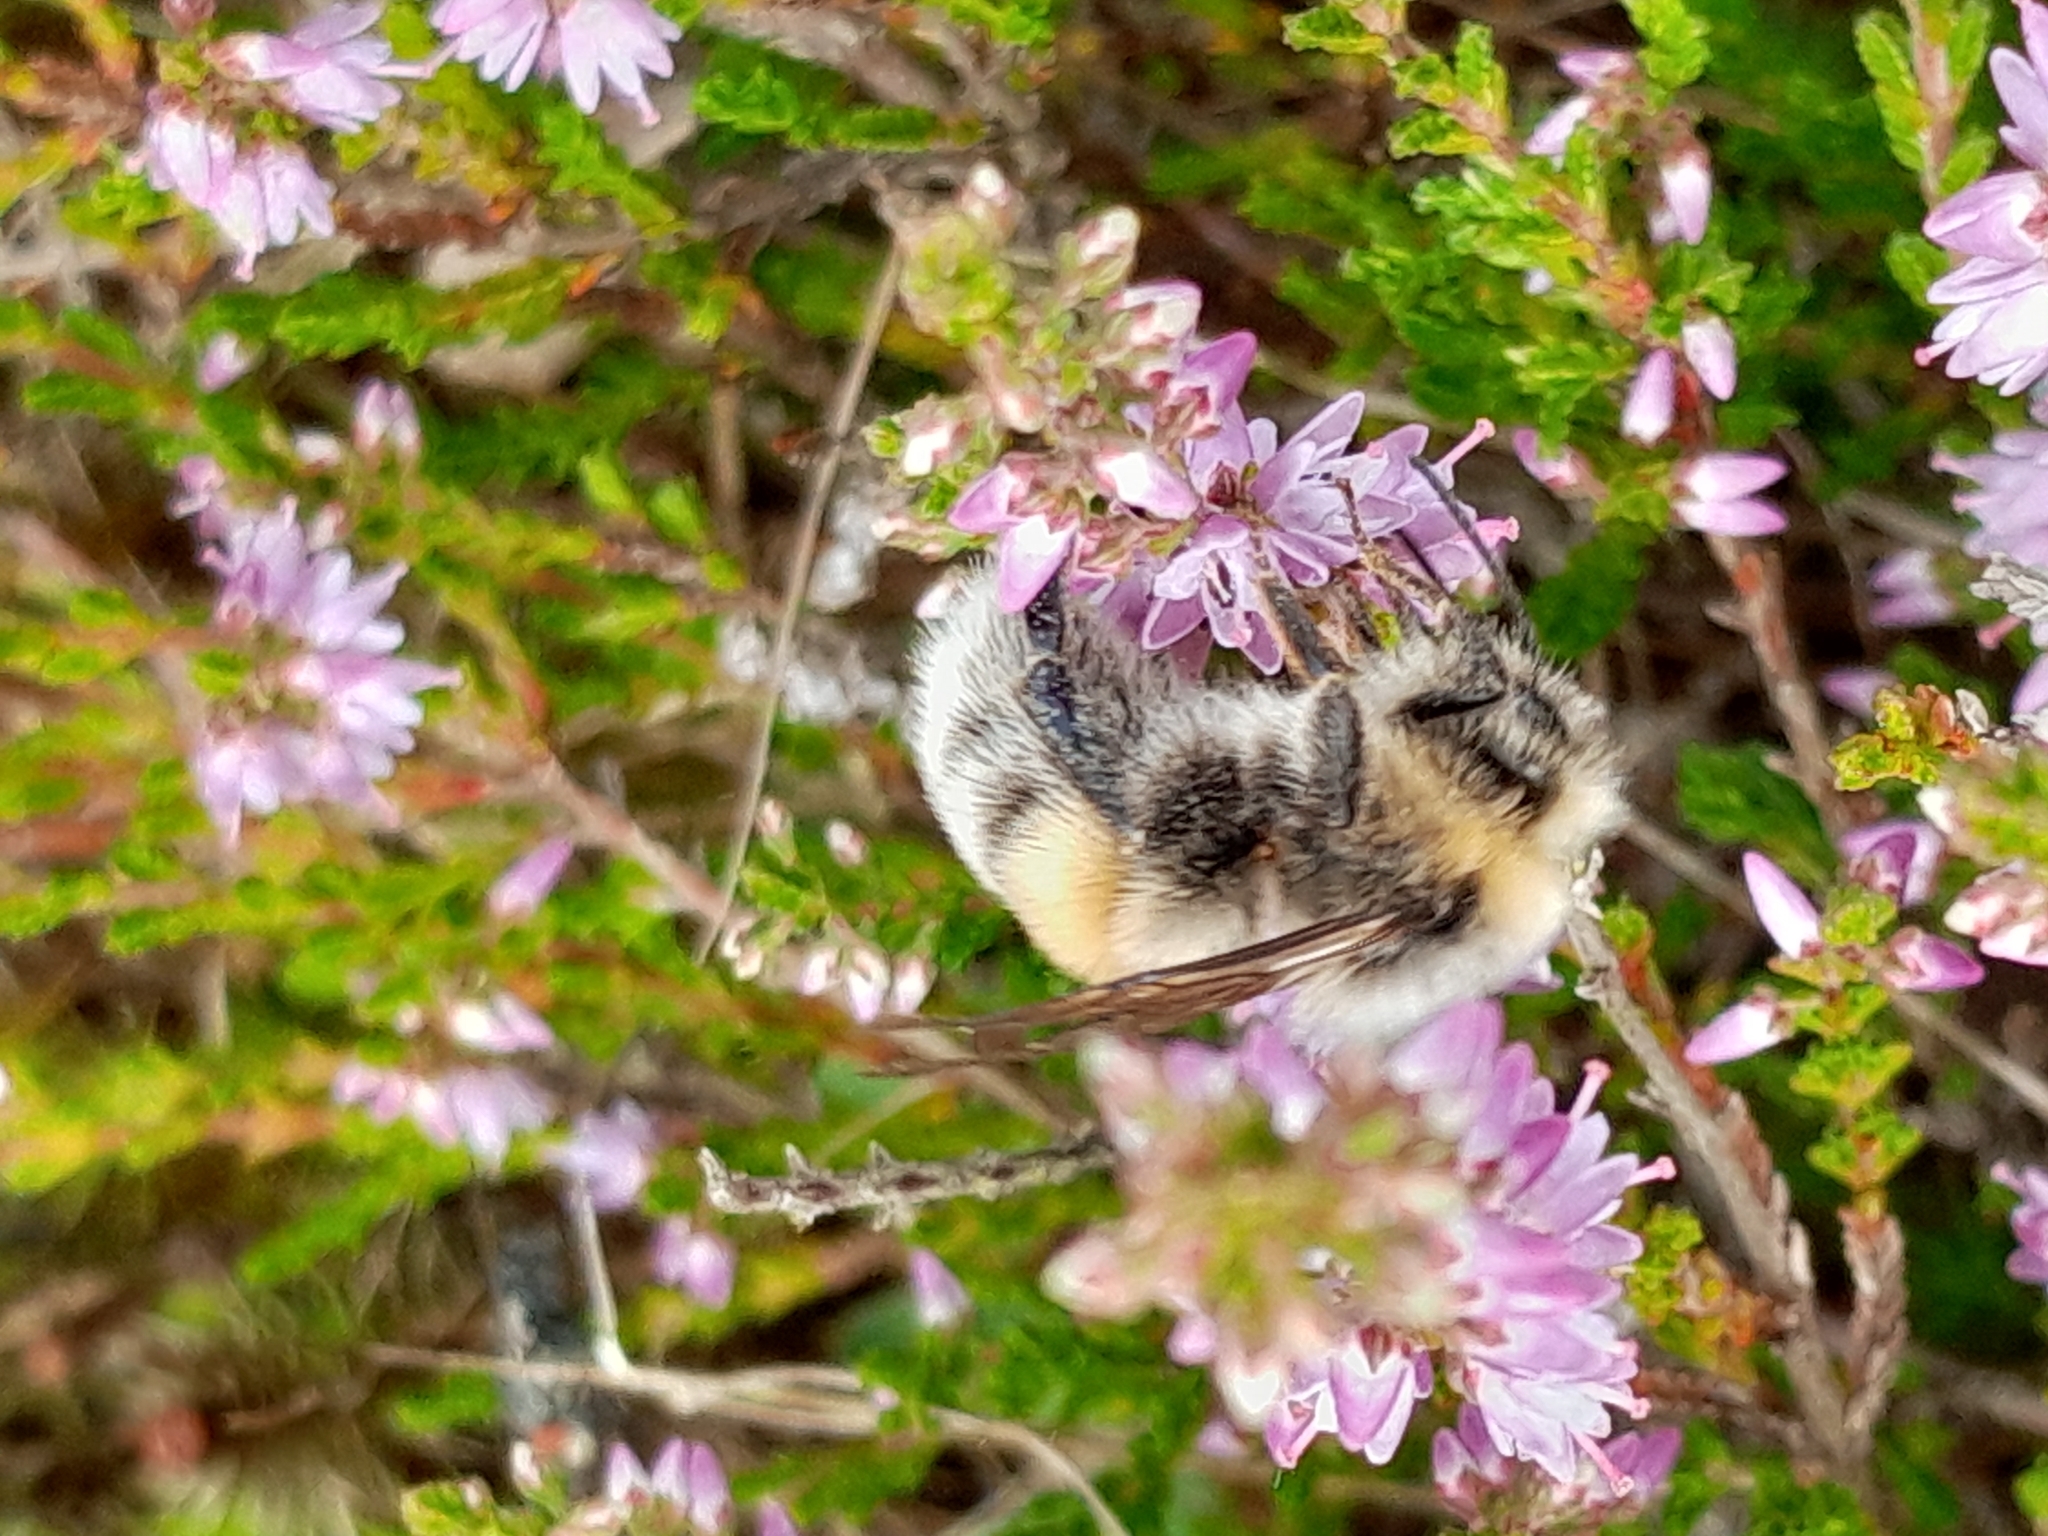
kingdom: Animalia
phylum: Arthropoda
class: Insecta
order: Hymenoptera
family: Apidae
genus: Bombus
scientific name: Bombus lucorum
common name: White-tailed bumblebee
